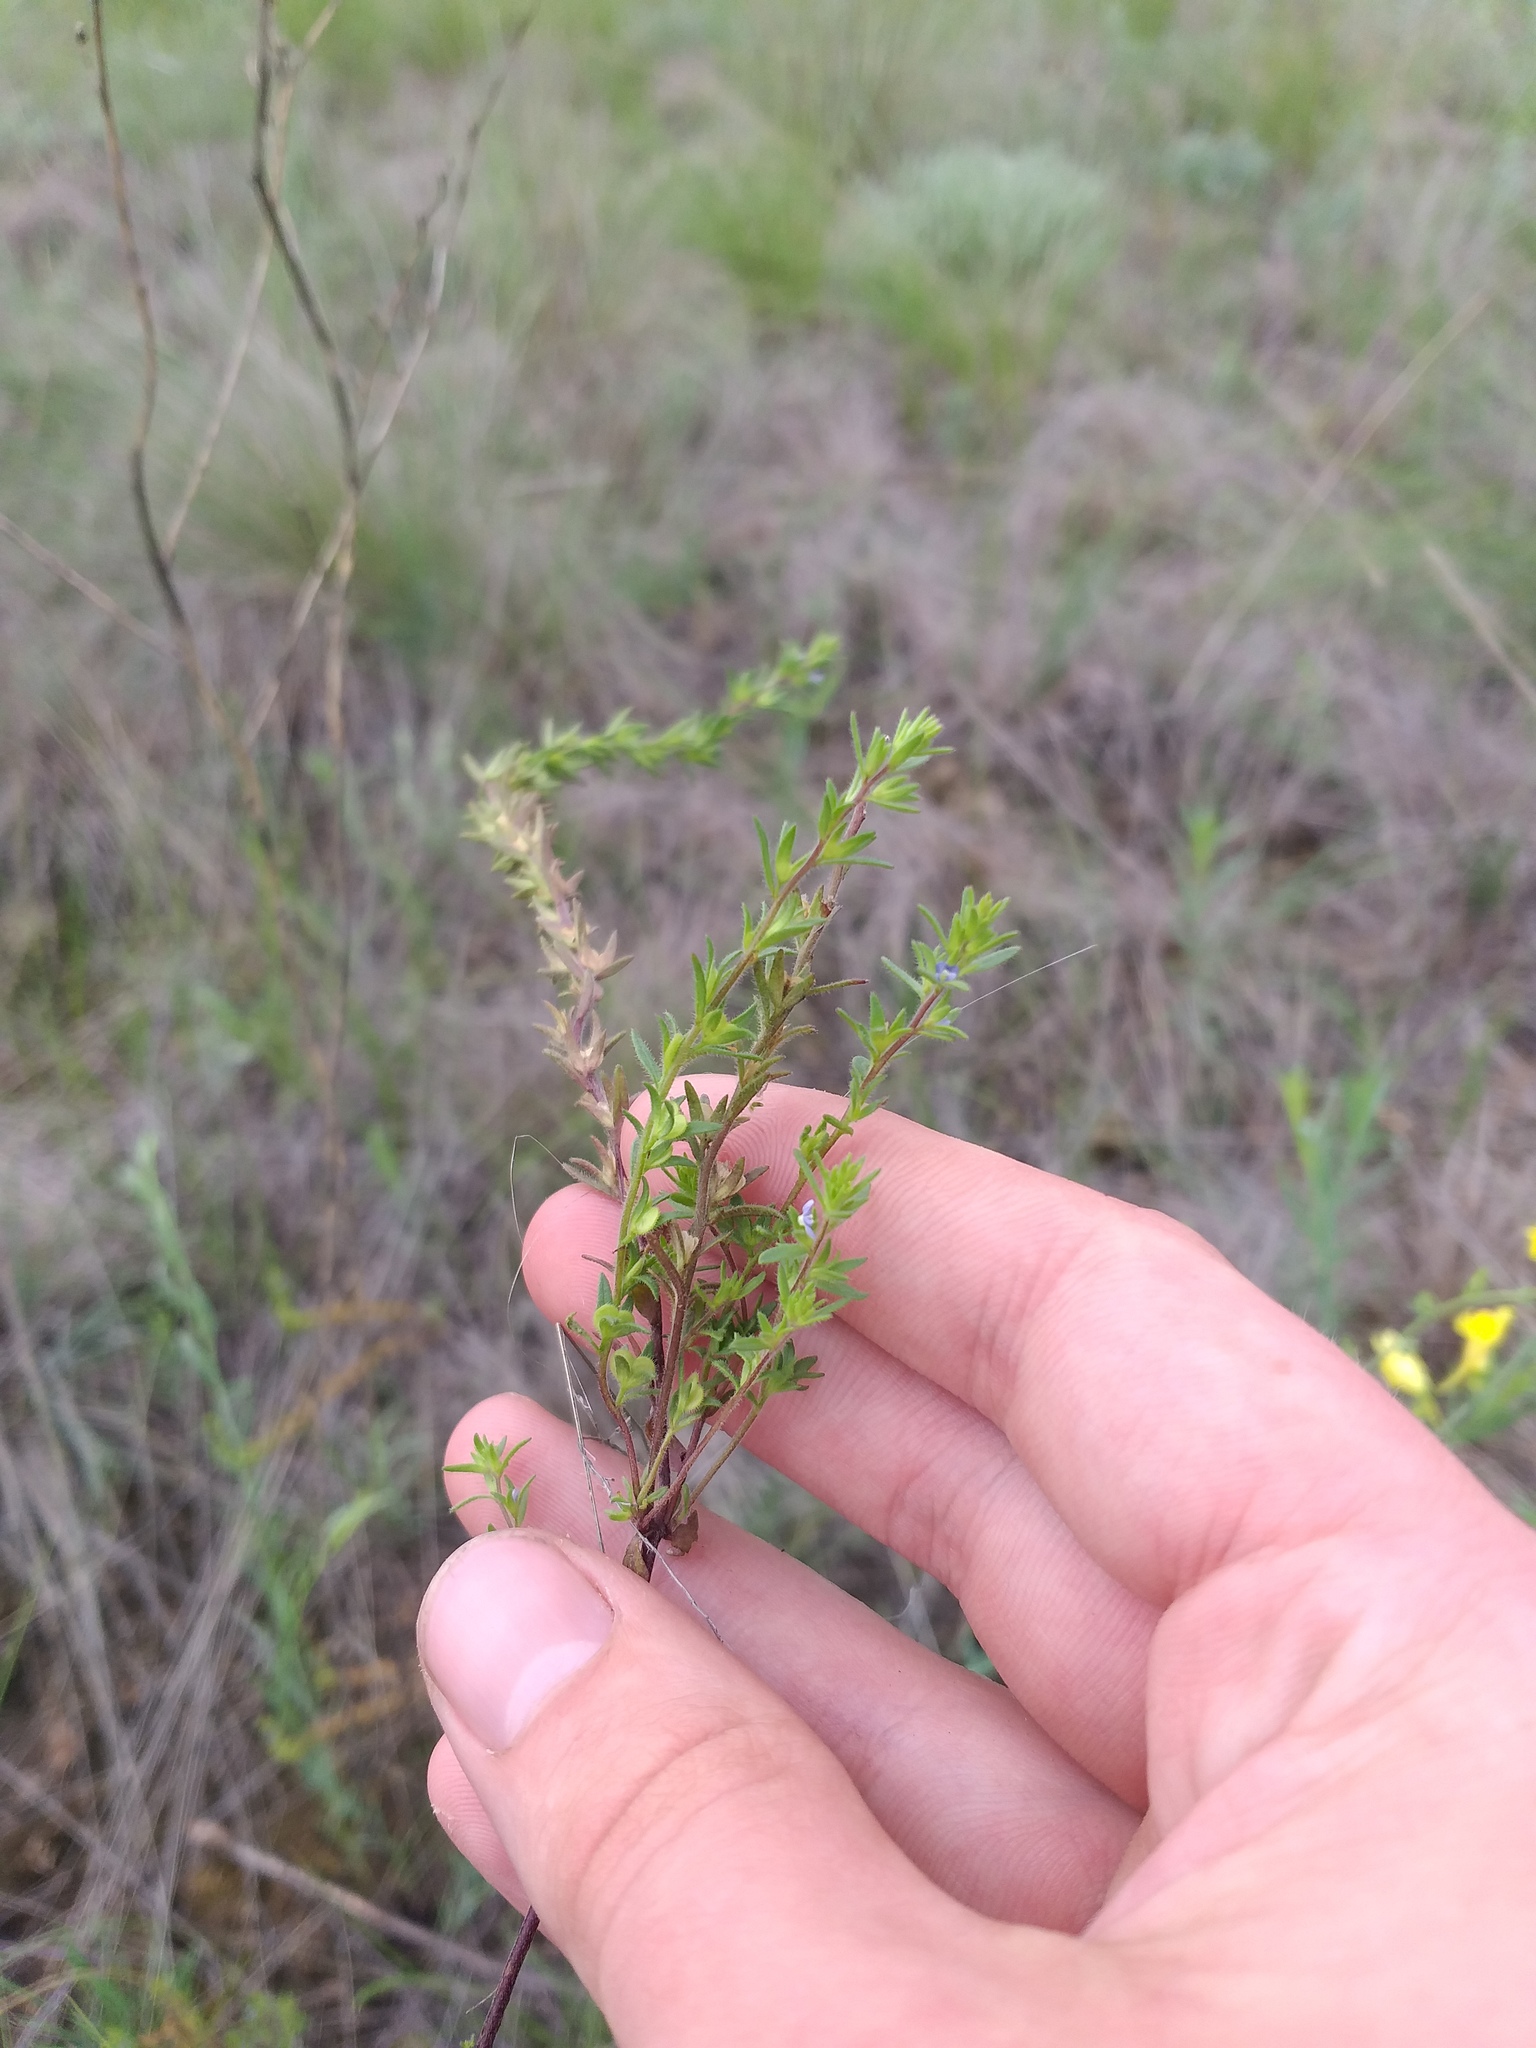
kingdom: Plantae
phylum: Tracheophyta
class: Magnoliopsida
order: Lamiales
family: Plantaginaceae
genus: Veronica
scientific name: Veronica verna
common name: Spring speedwell
